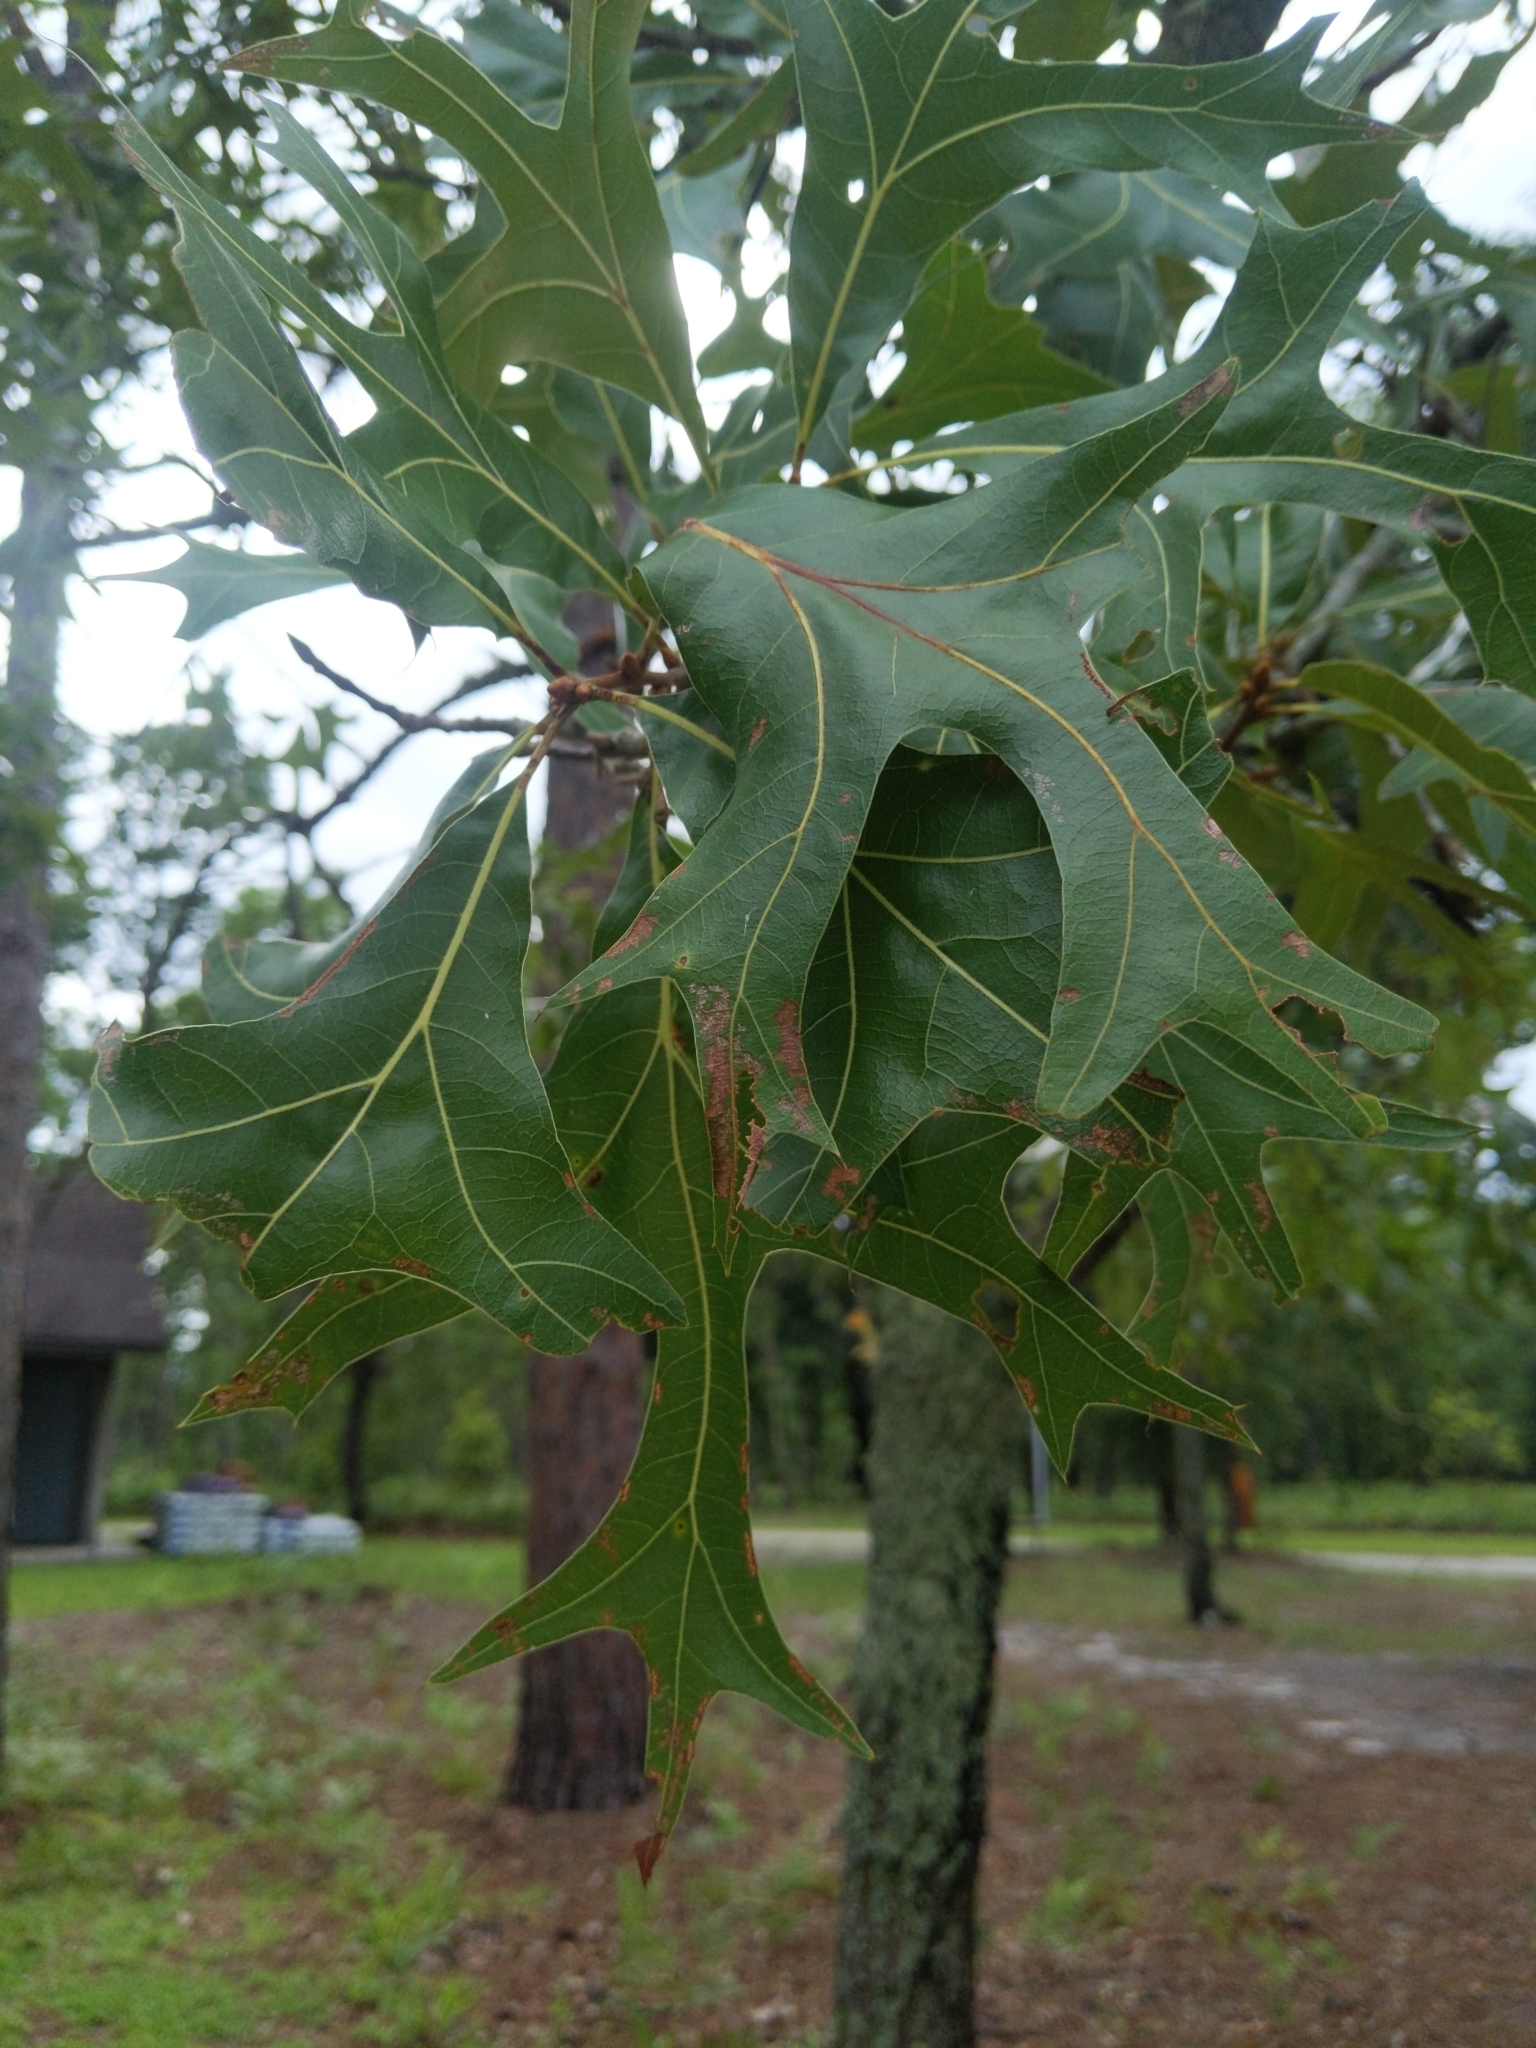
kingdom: Plantae
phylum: Tracheophyta
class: Magnoliopsida
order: Fagales
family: Fagaceae
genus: Quercus
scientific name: Quercus laevis
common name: Turkey oak
